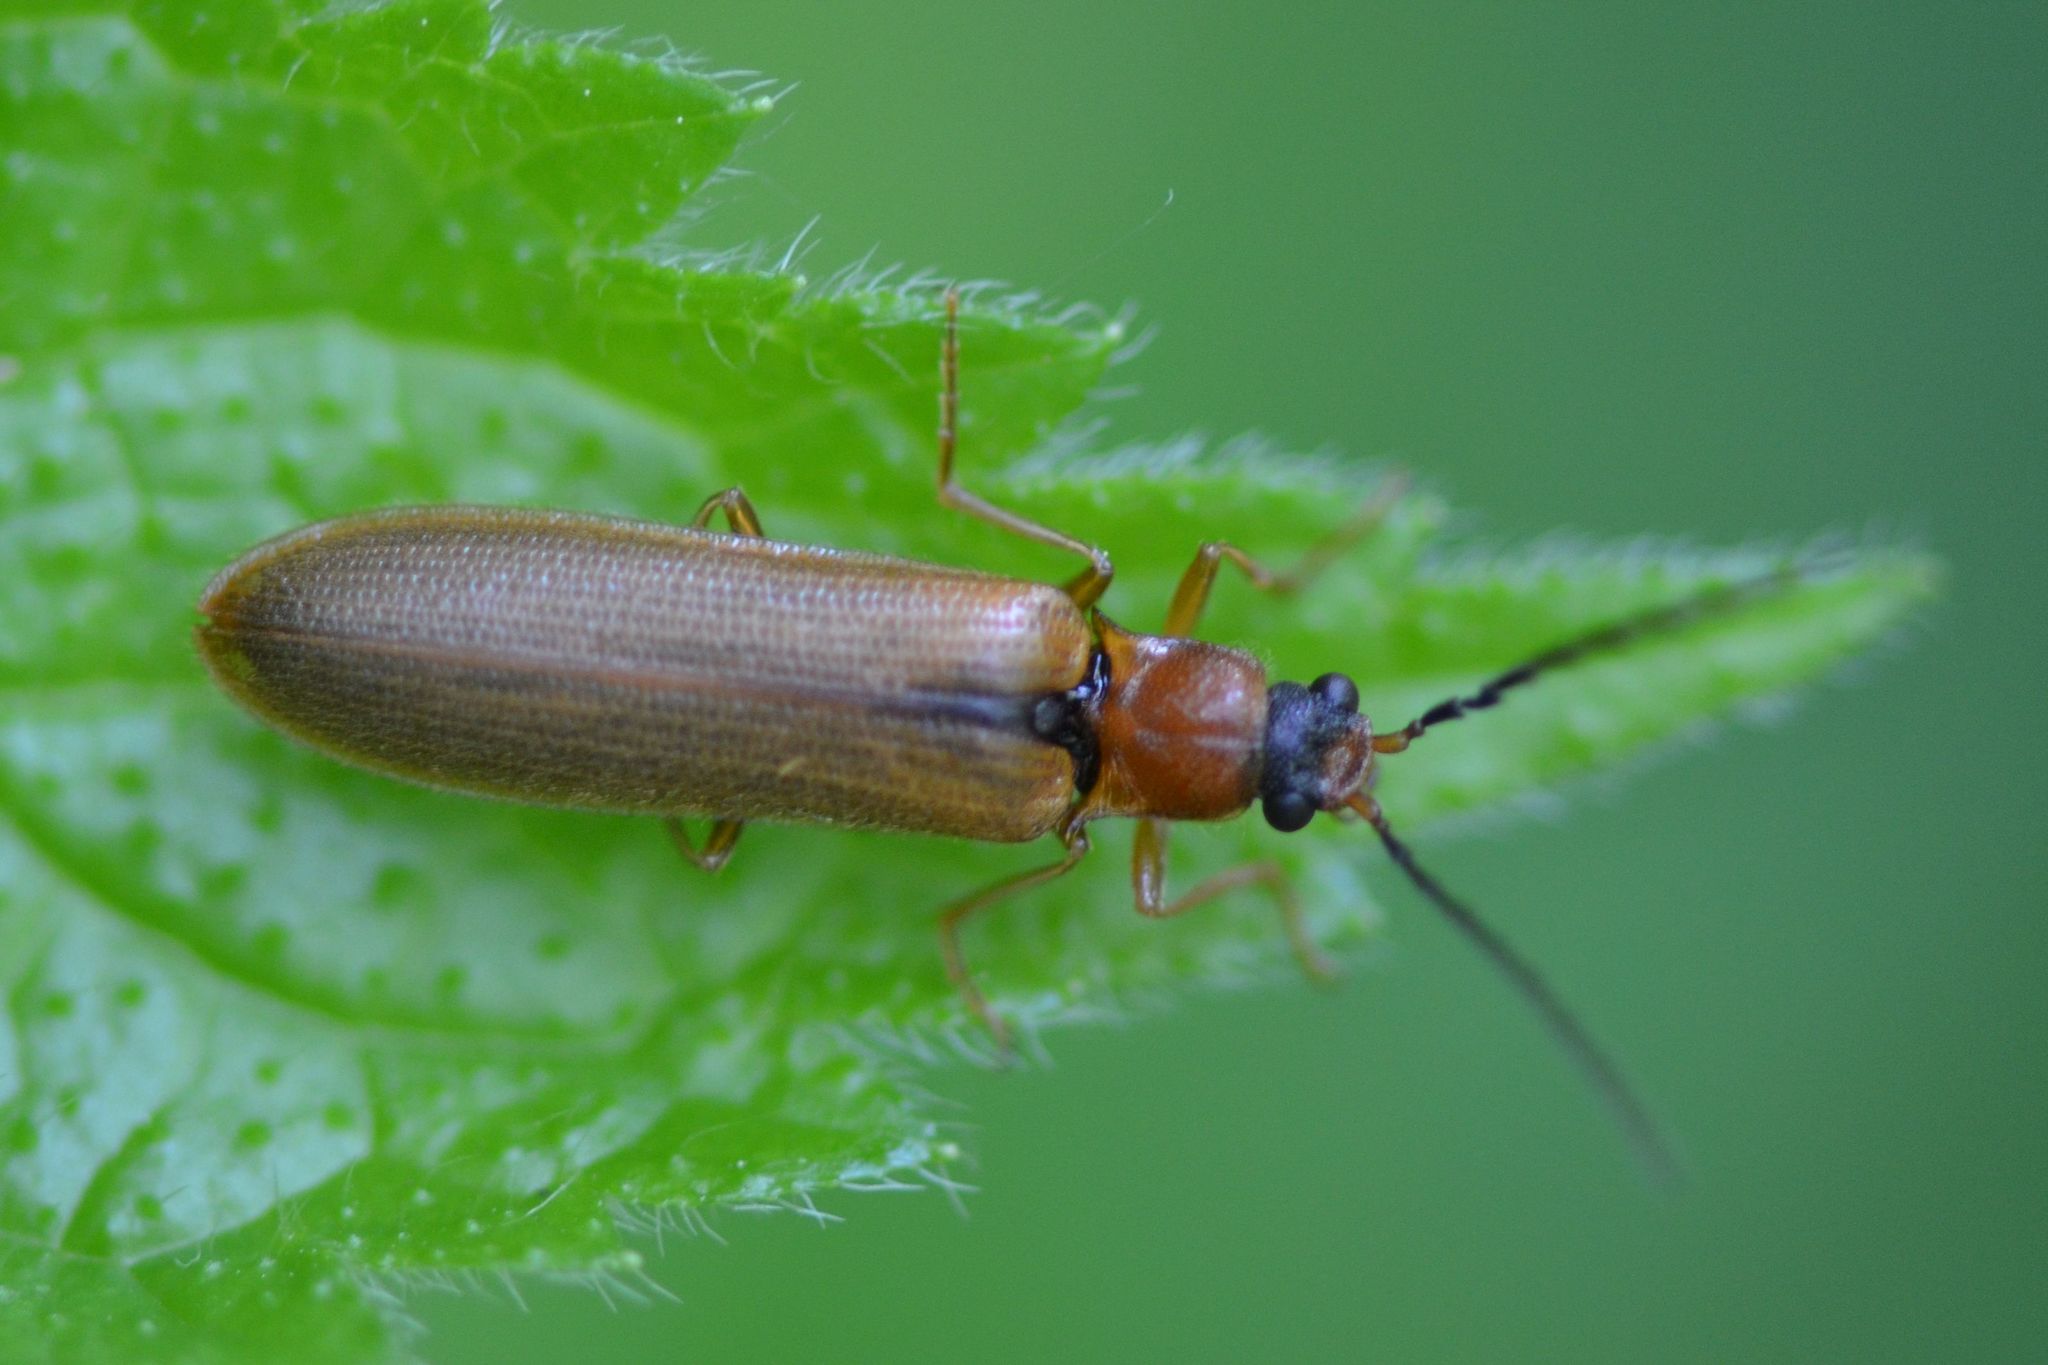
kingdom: Animalia
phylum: Arthropoda
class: Insecta
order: Coleoptera
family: Elateridae
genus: Denticollis
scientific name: Denticollis linearis
